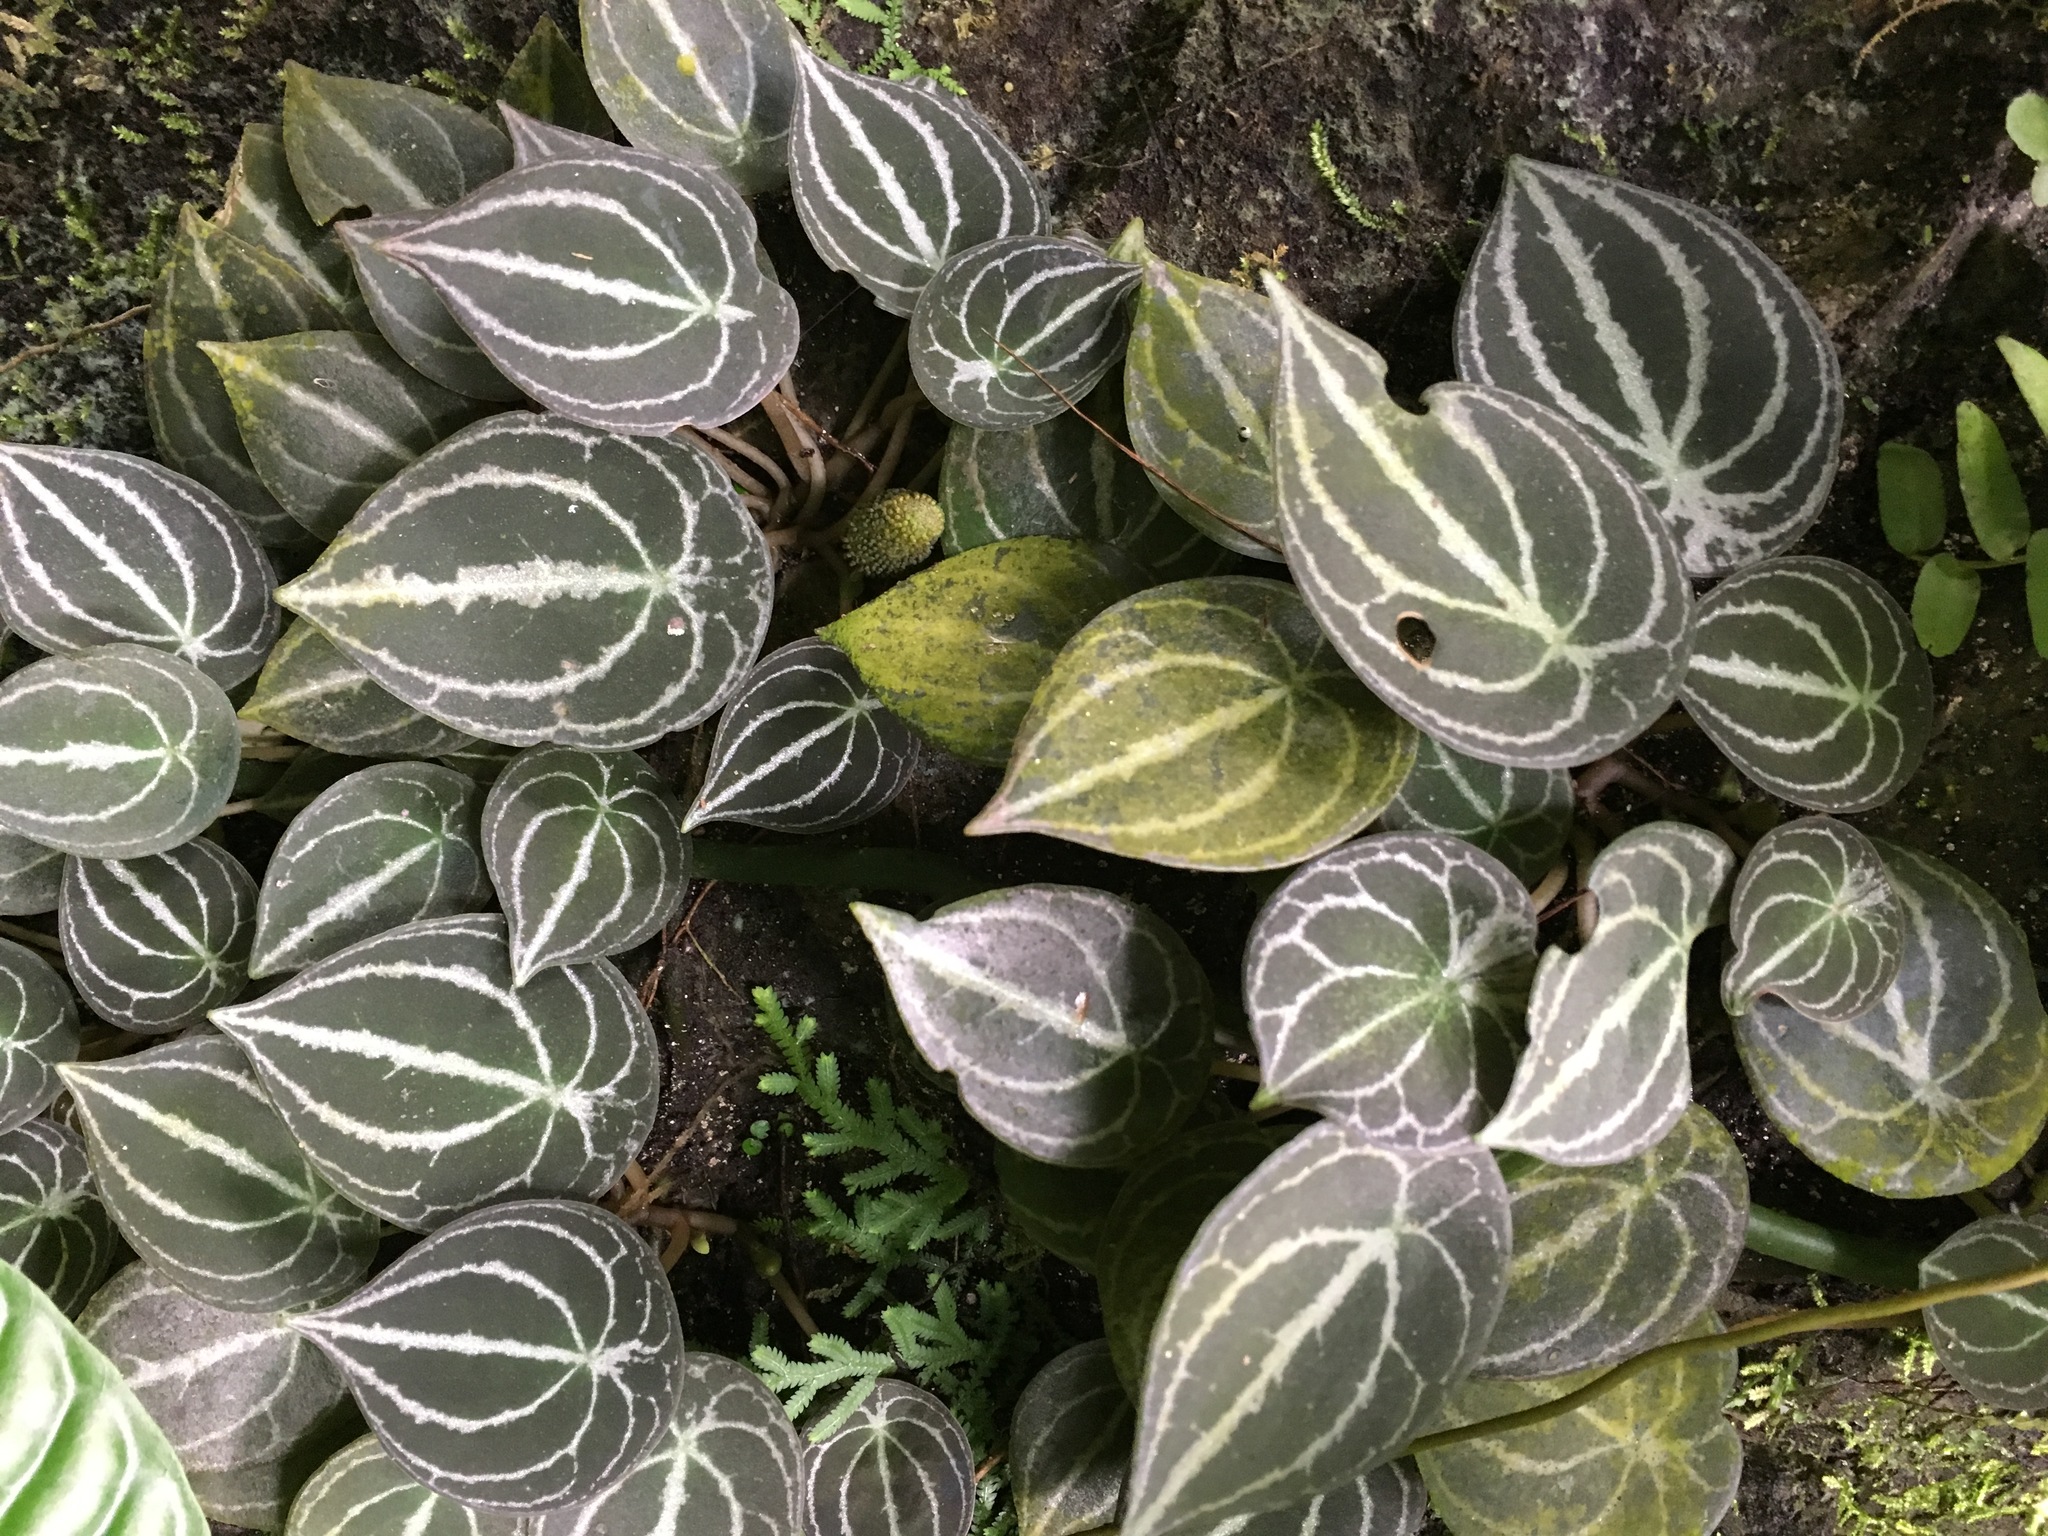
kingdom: Plantae
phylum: Tracheophyta
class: Magnoliopsida
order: Piperales
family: Piperaceae
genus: Peperomia
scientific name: Peperomia clavigera
